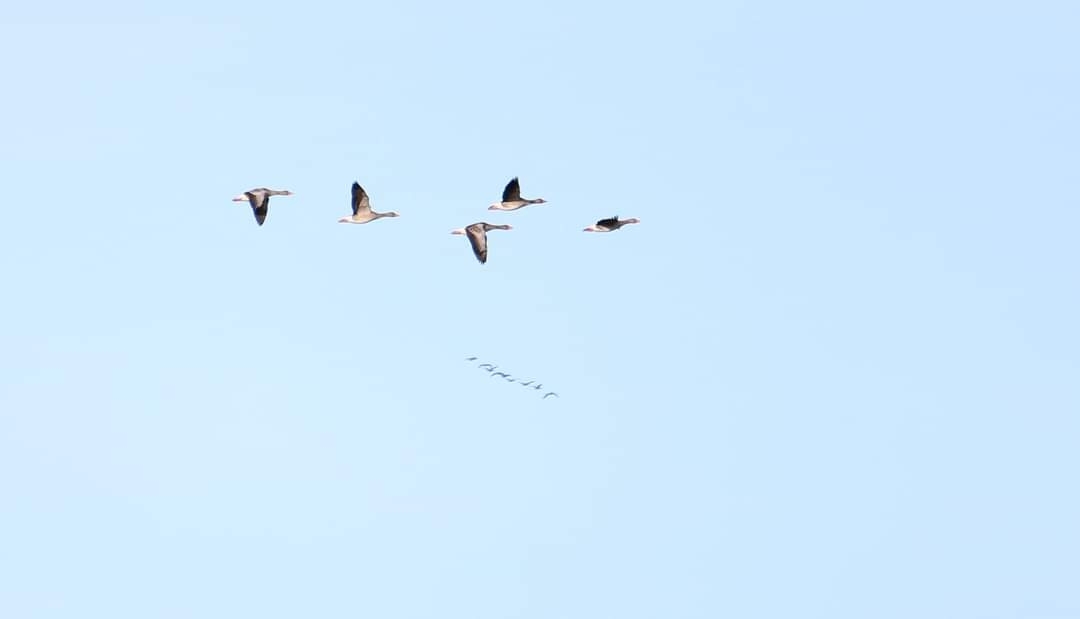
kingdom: Animalia
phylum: Chordata
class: Aves
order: Anseriformes
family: Anatidae
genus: Anser
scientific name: Anser anser
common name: Greylag goose
